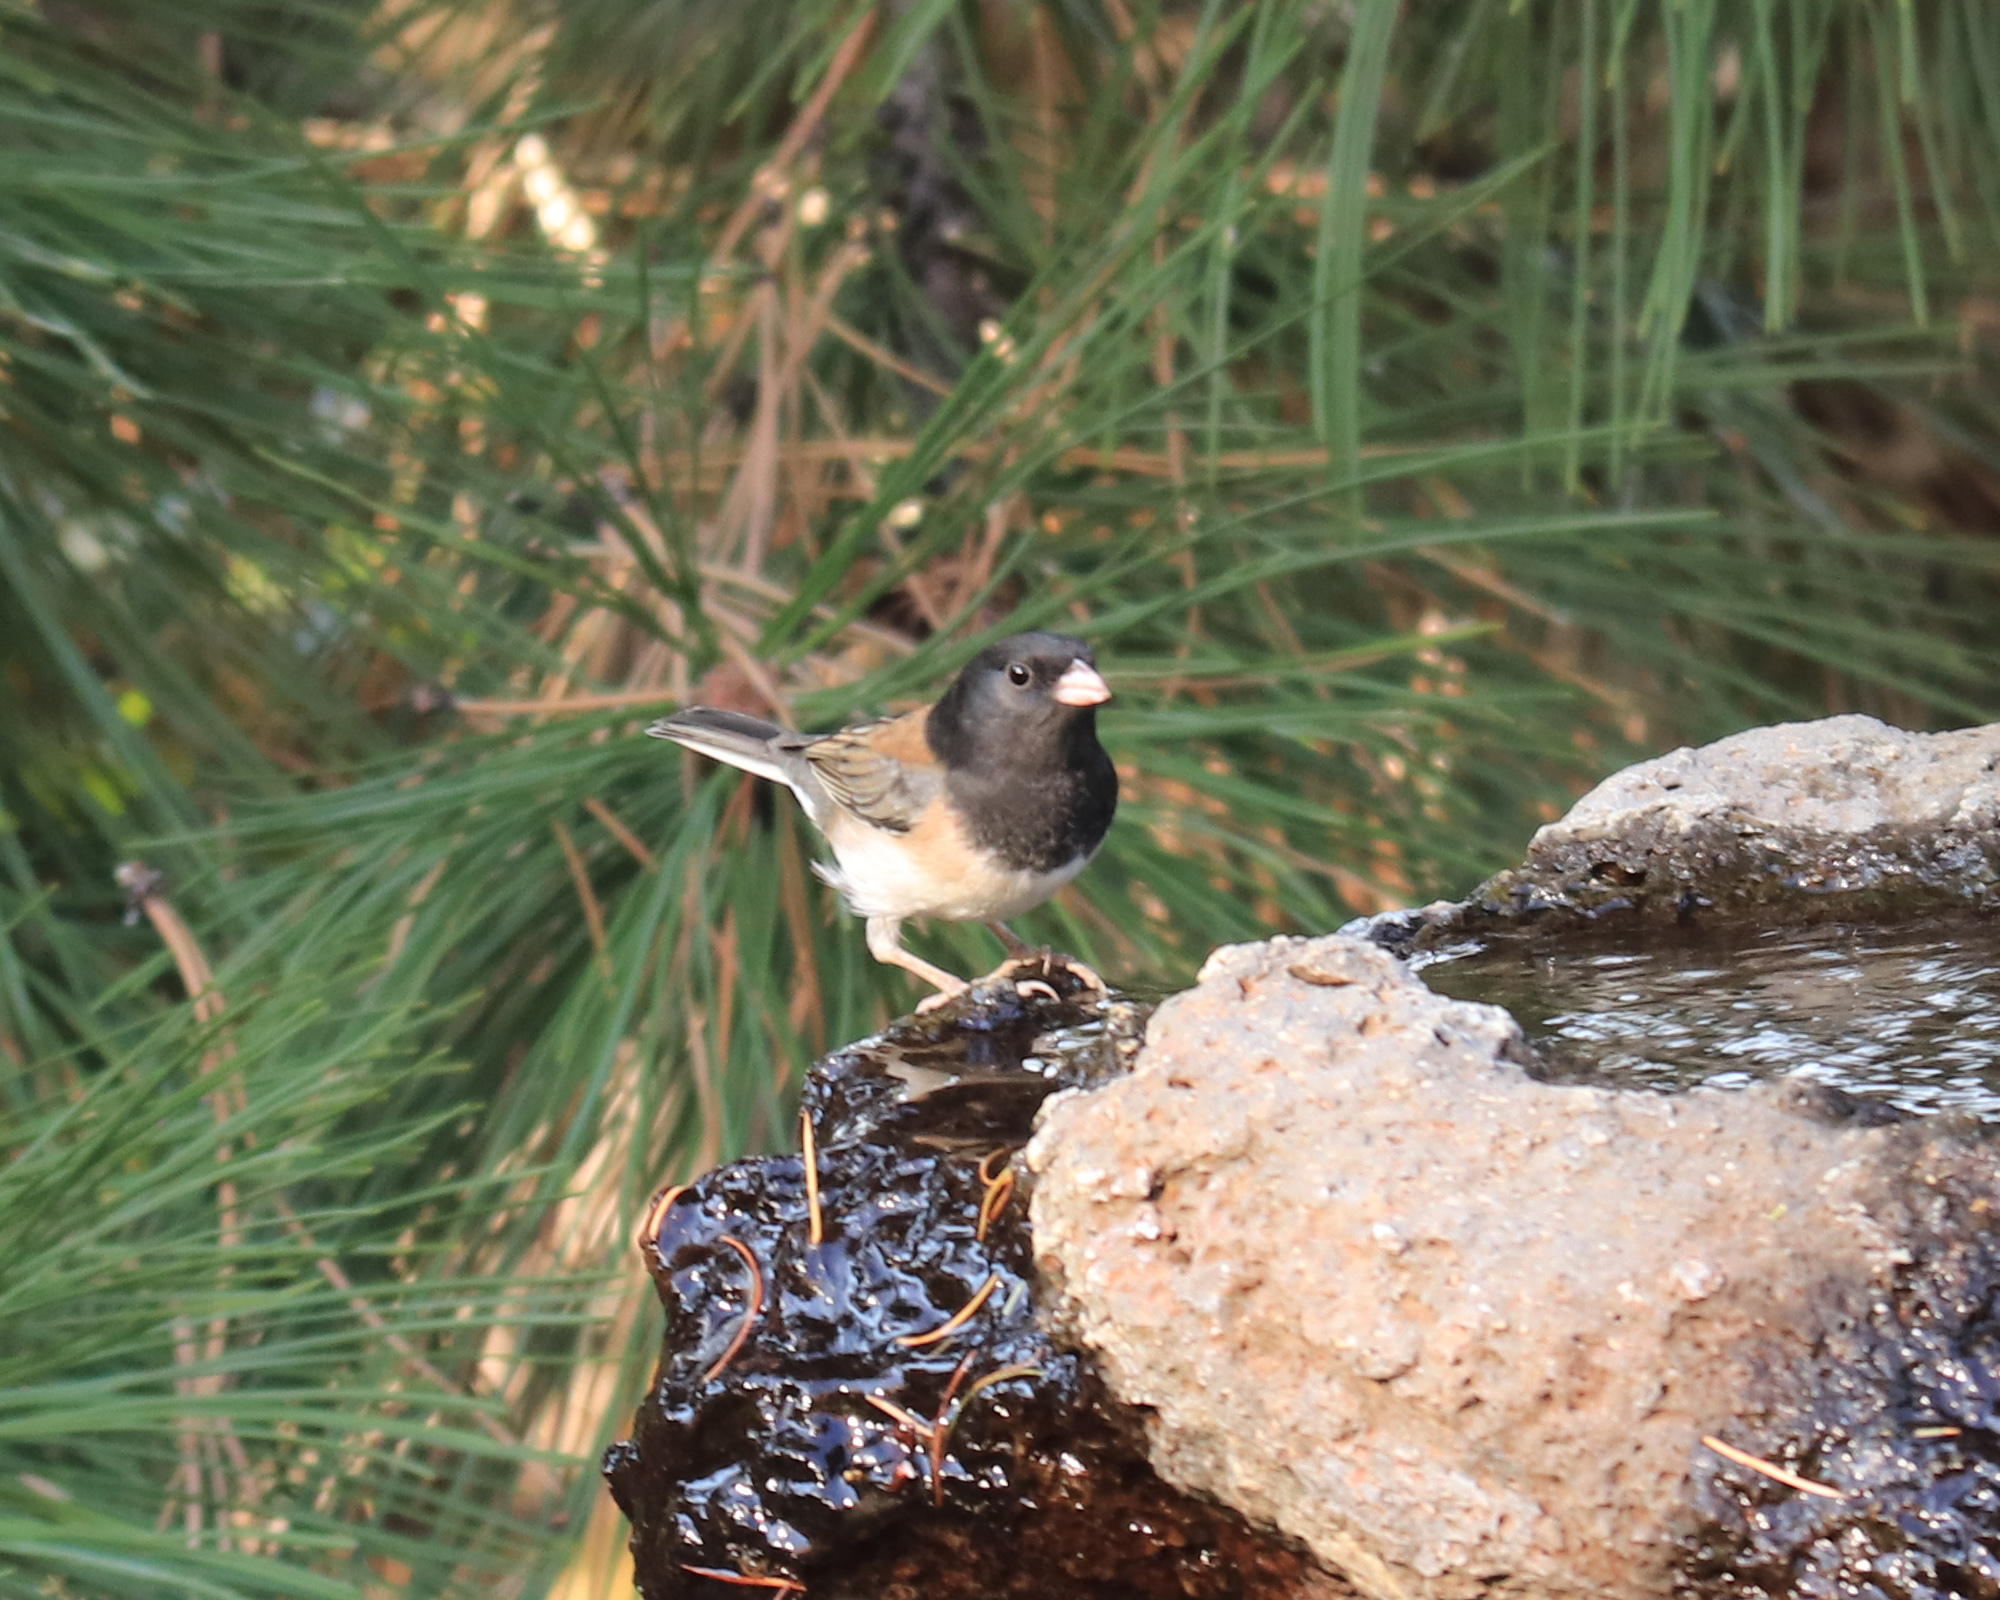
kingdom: Animalia
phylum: Chordata
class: Aves
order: Passeriformes
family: Passerellidae
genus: Junco
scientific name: Junco hyemalis
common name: Dark-eyed junco
